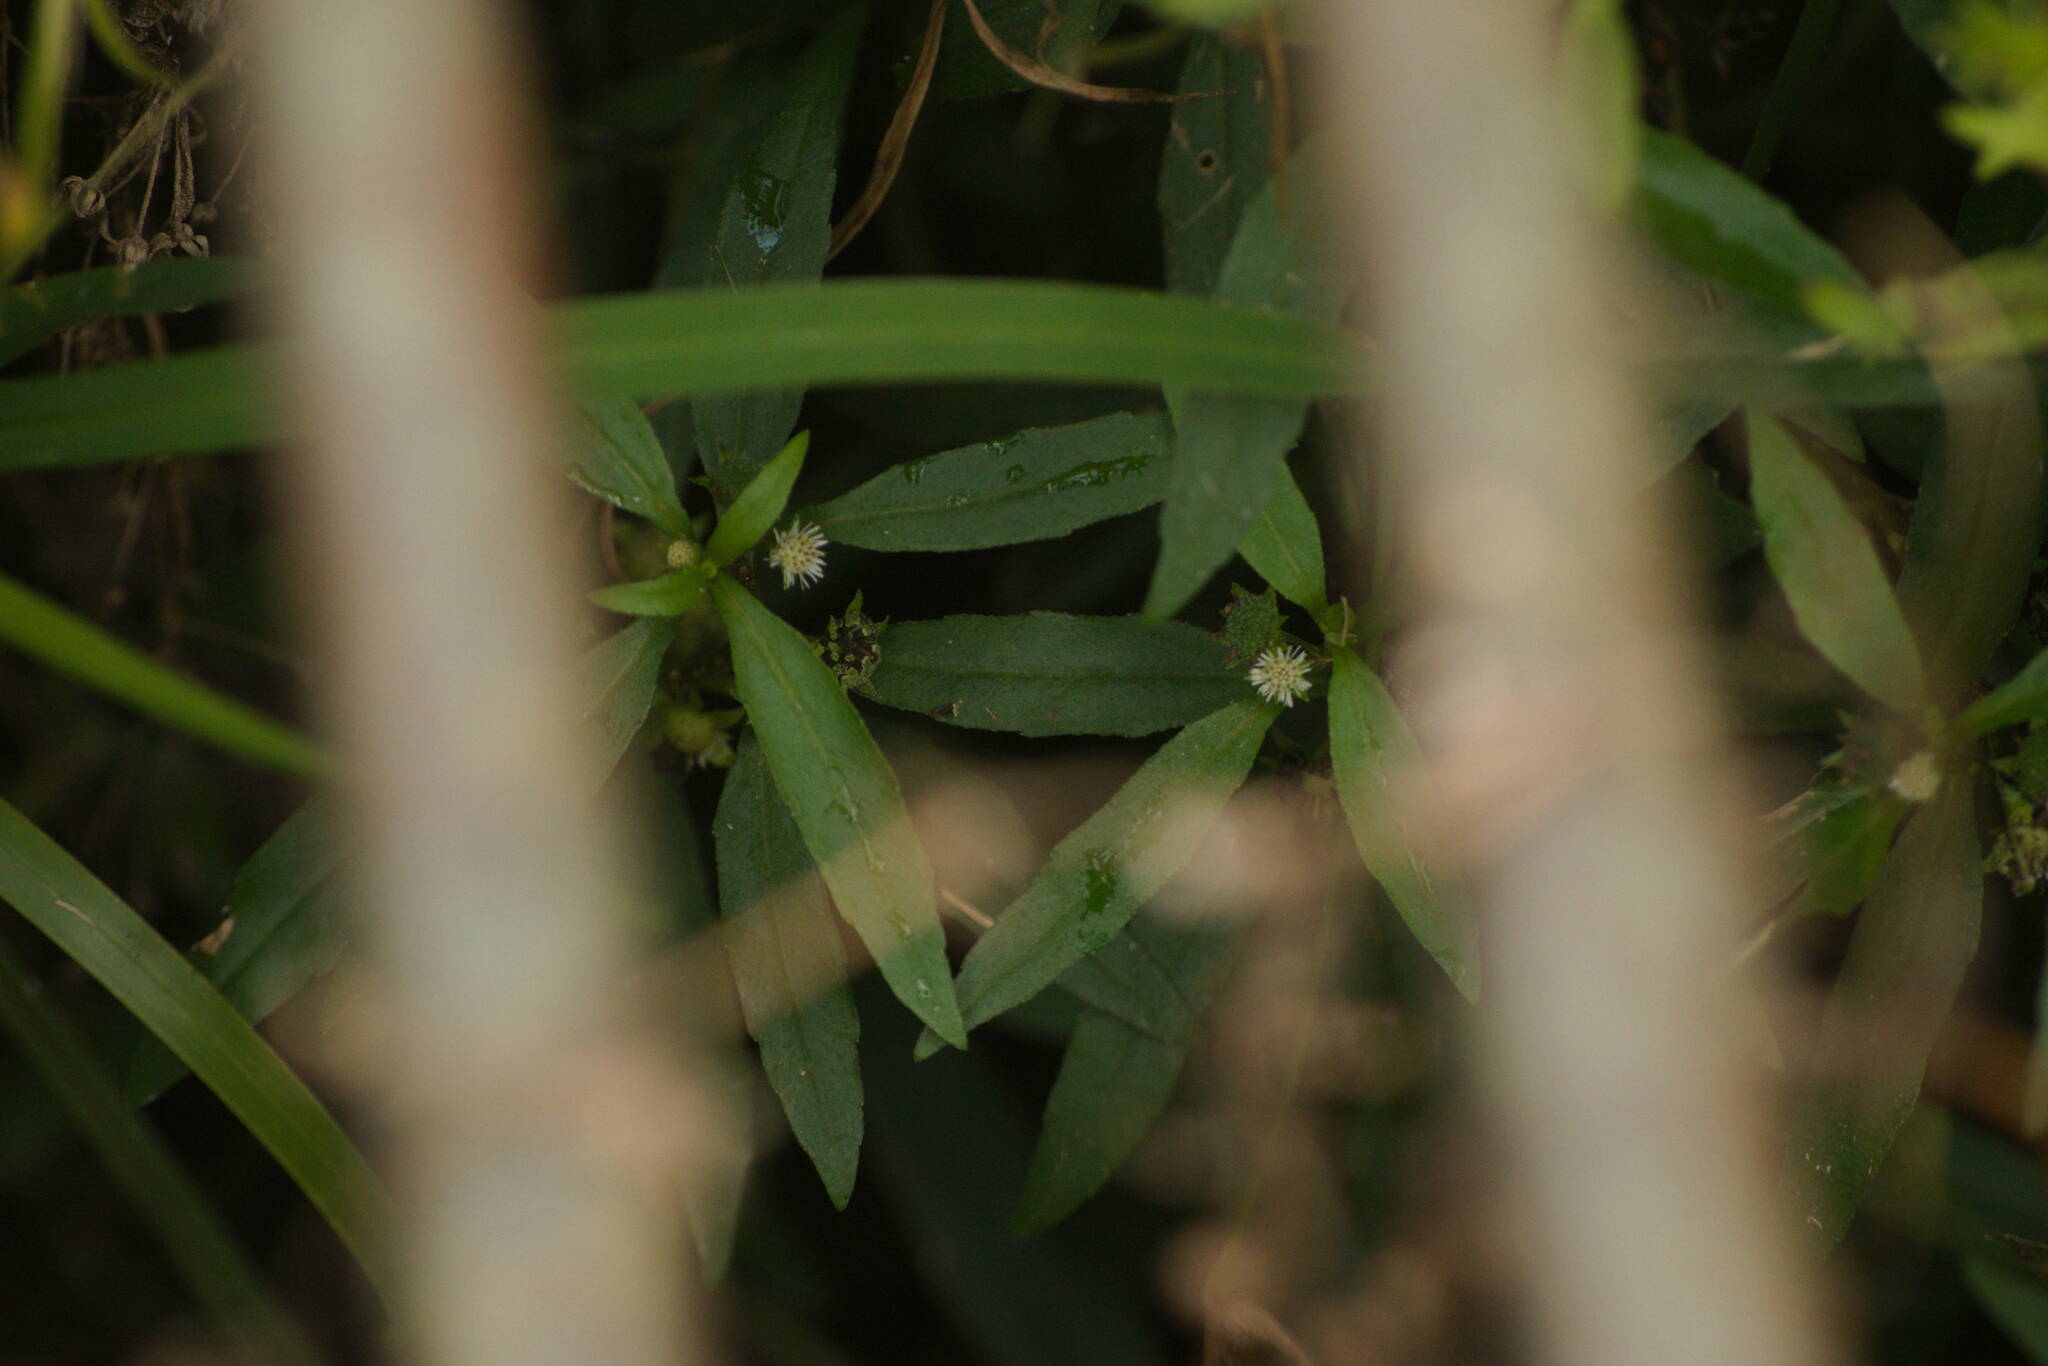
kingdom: Plantae
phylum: Tracheophyta
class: Magnoliopsida
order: Asterales
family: Asteraceae
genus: Eclipta
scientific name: Eclipta prostrata
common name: False daisy
